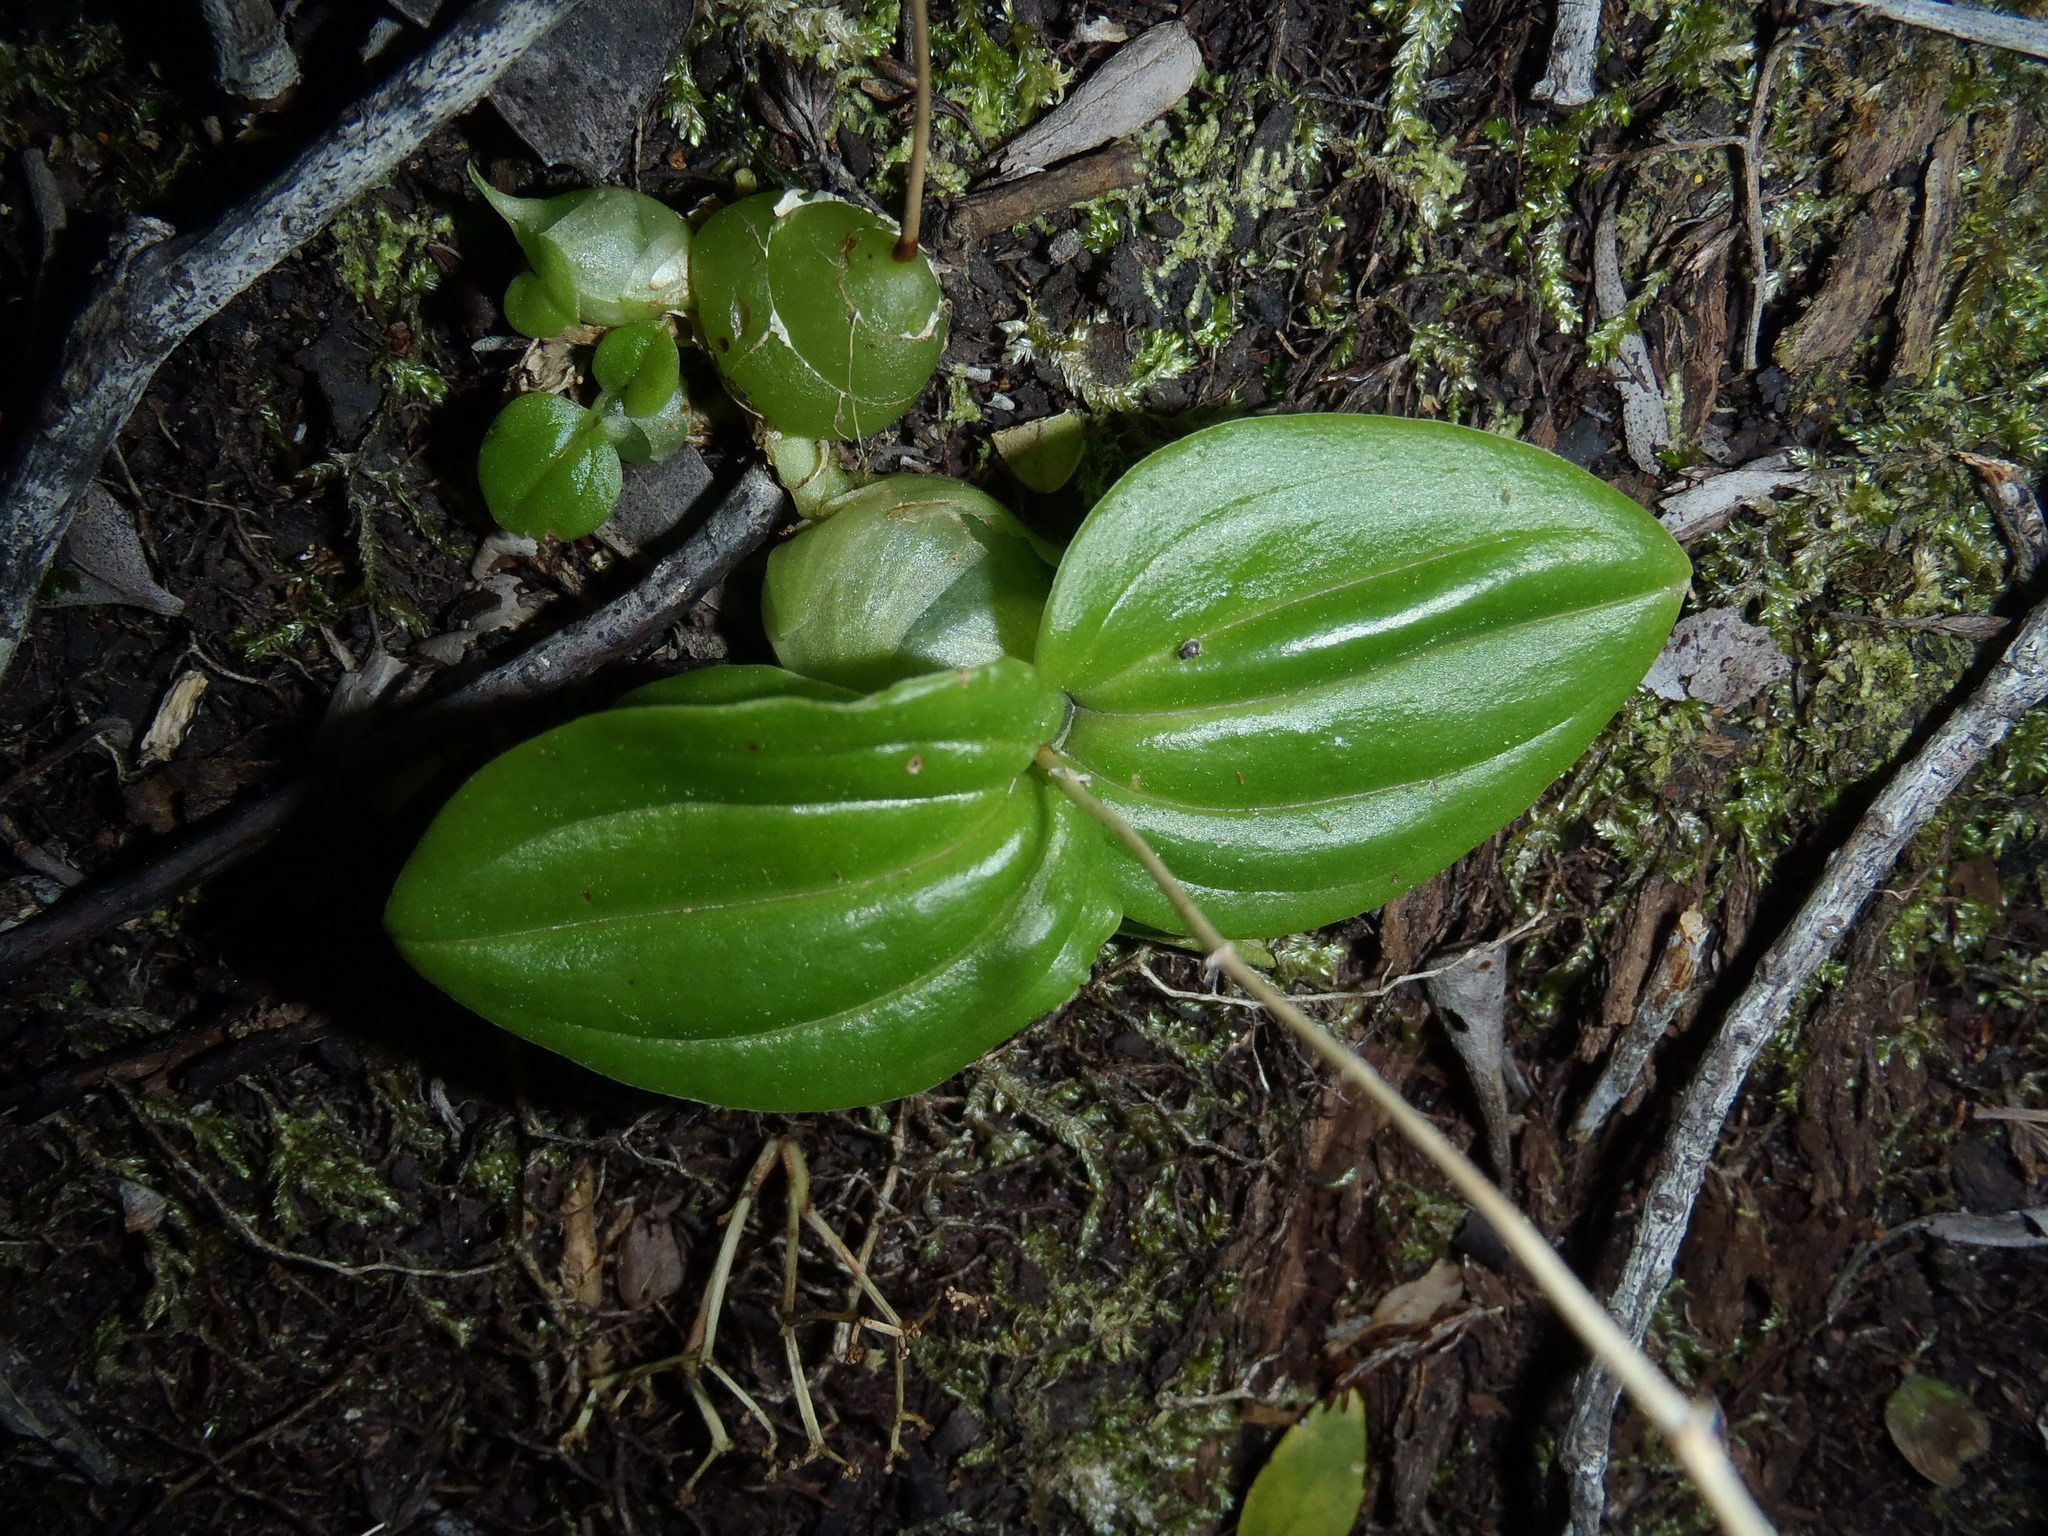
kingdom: Plantae
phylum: Tracheophyta
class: Liliopsida
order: Asparagales
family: Orchidaceae
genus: Liparis
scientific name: Liparis remota
